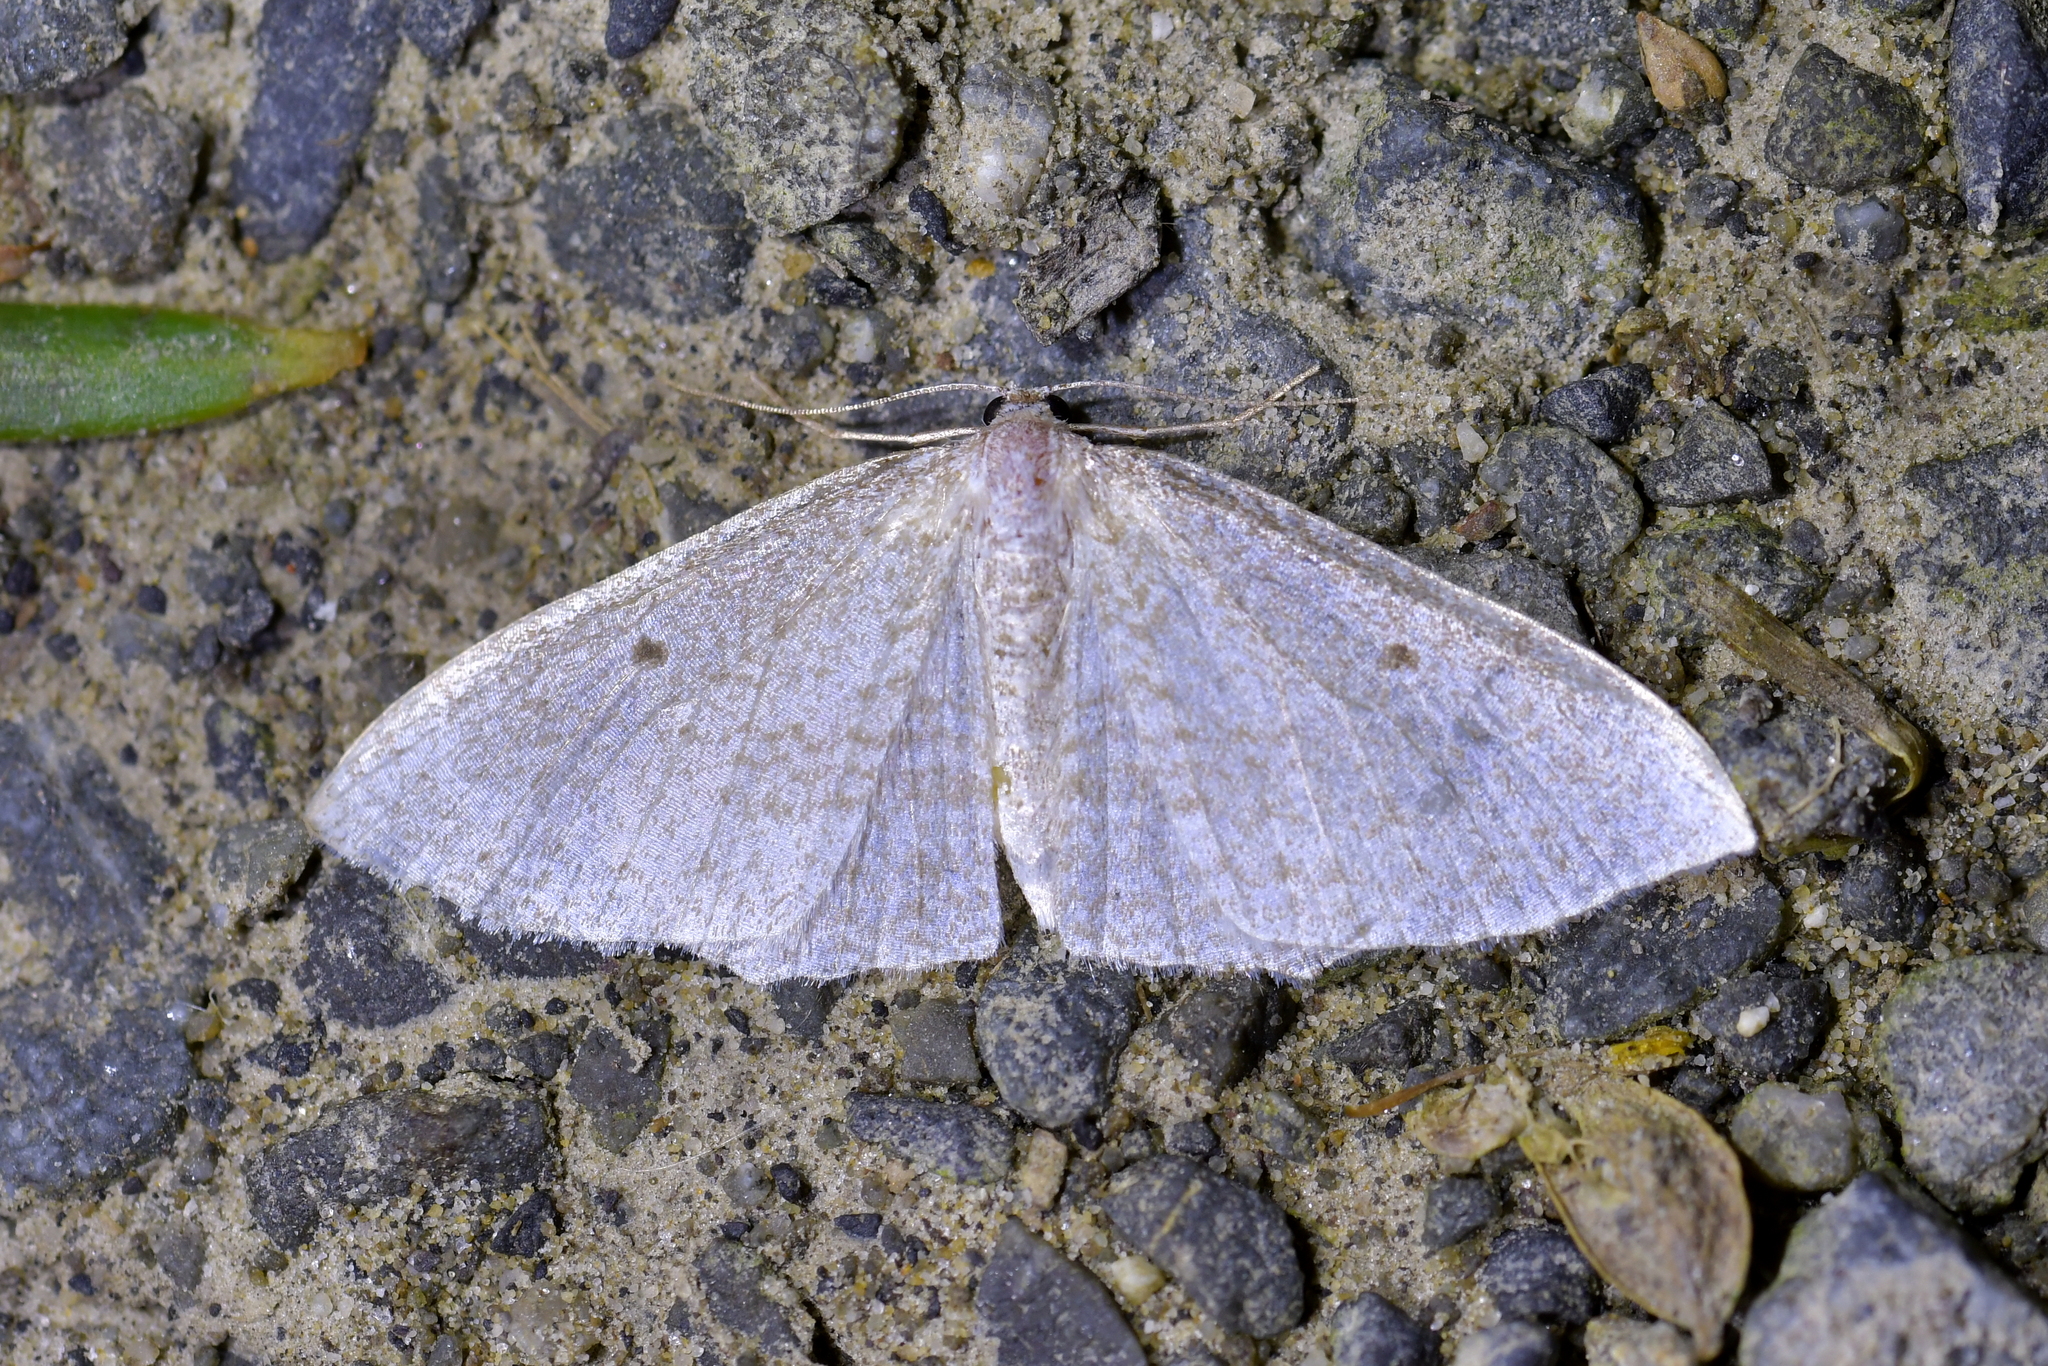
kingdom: Animalia
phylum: Arthropoda
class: Insecta
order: Lepidoptera
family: Geometridae
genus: Poecilasthena
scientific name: Poecilasthena pulchraria
